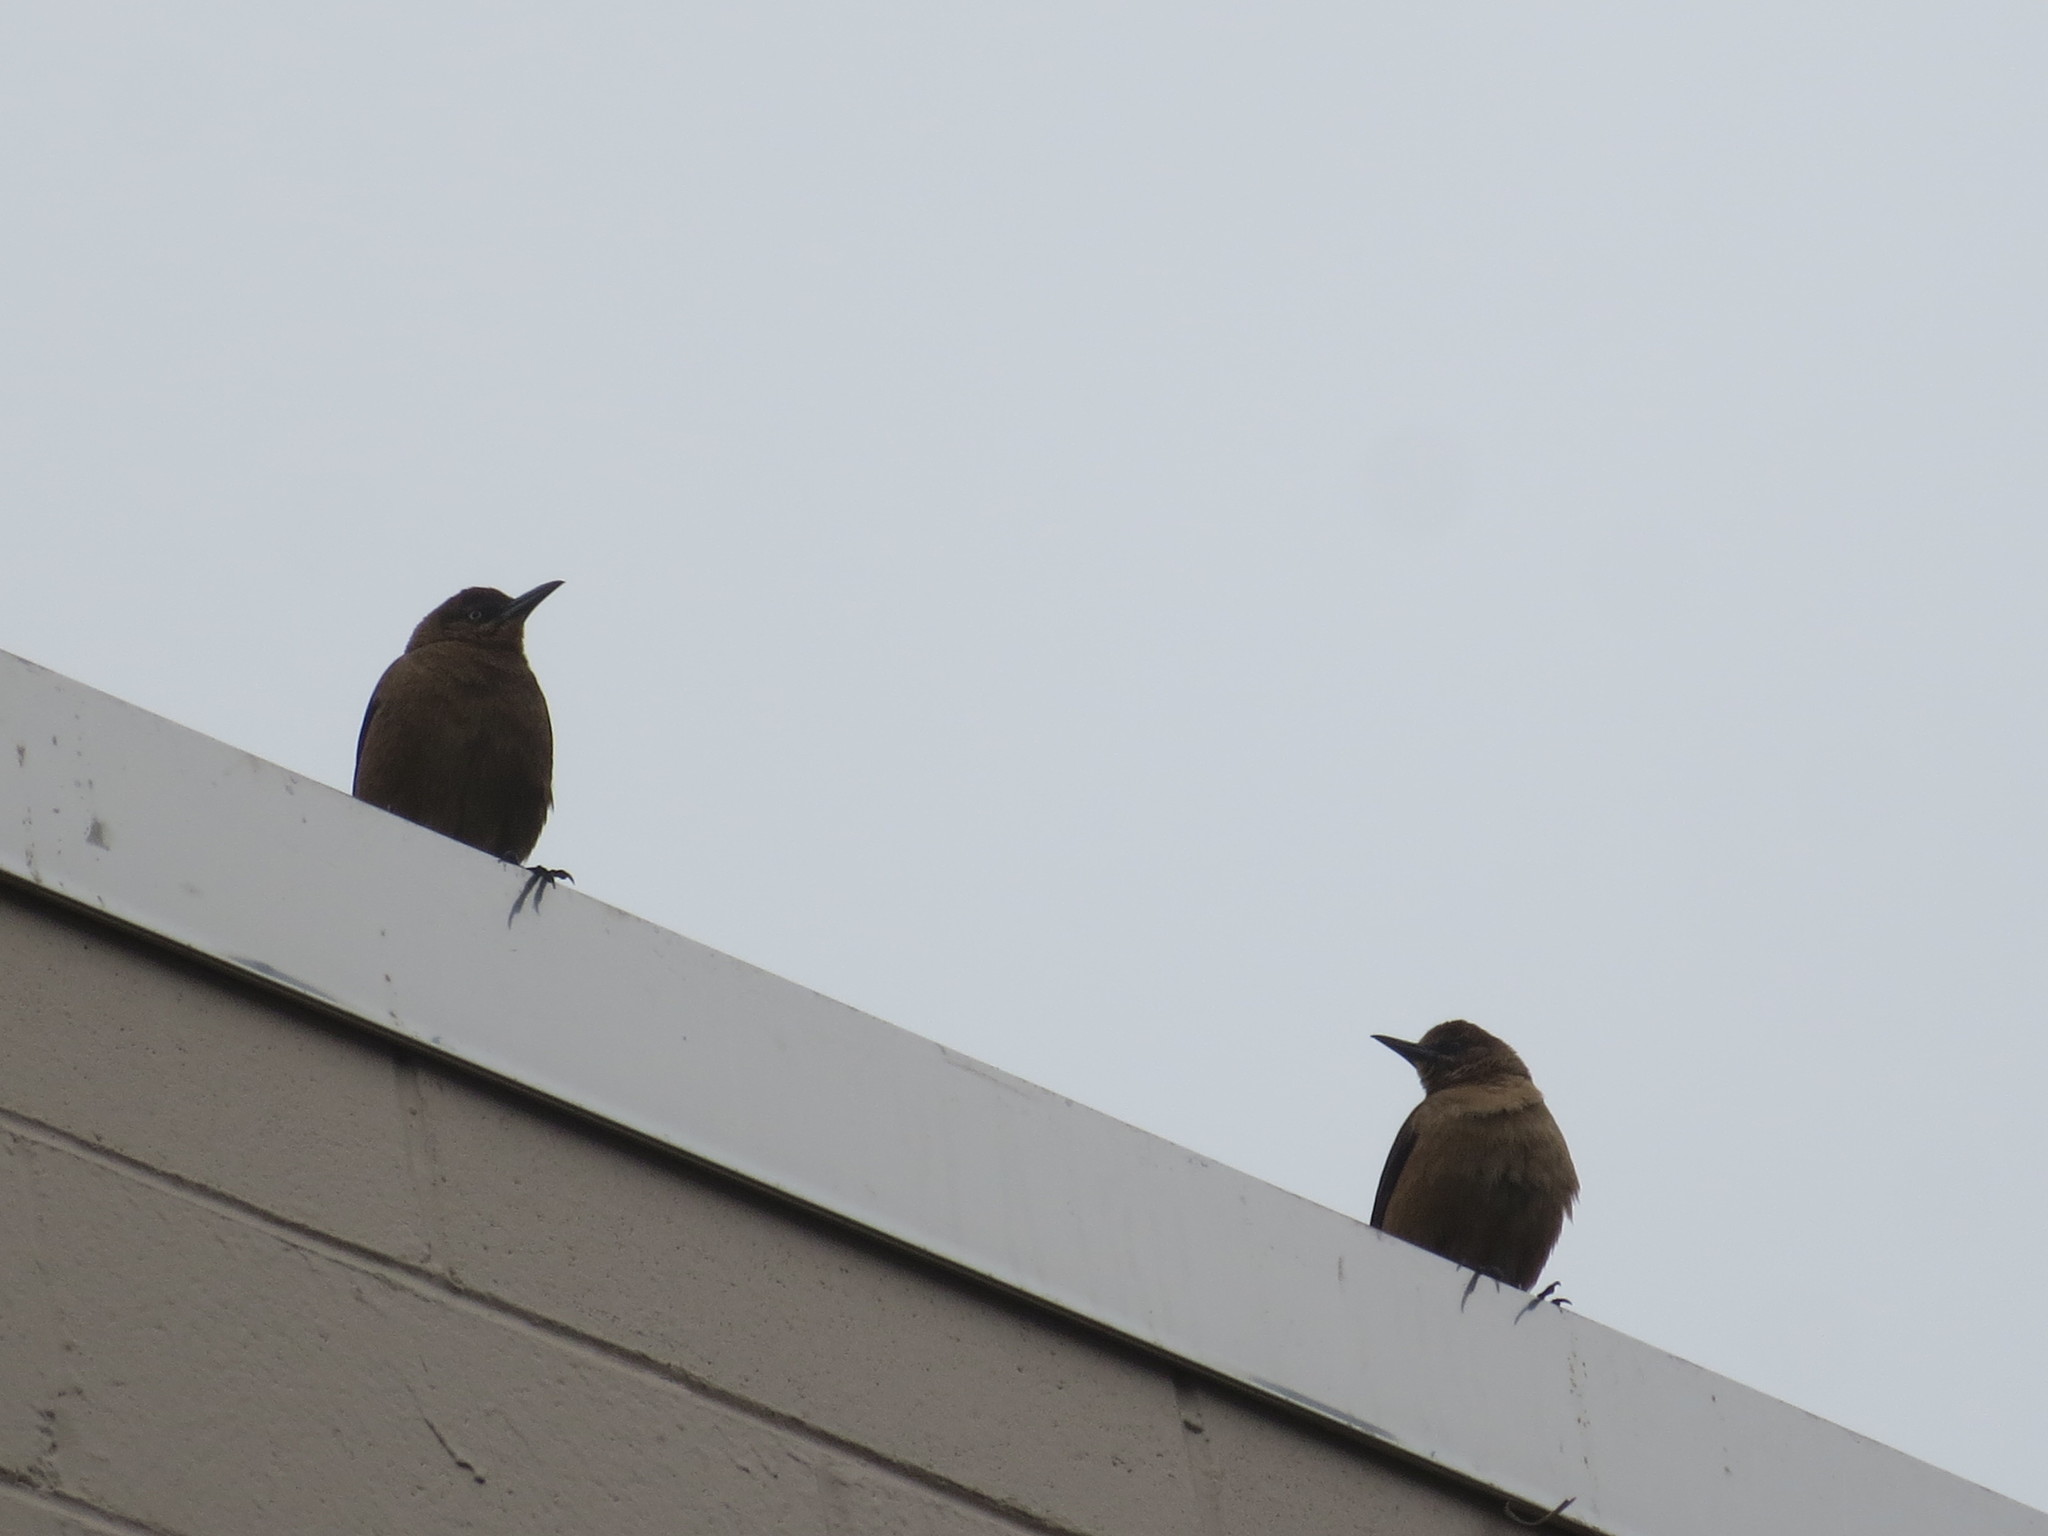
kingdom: Animalia
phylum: Chordata
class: Aves
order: Passeriformes
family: Icteridae
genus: Quiscalus
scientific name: Quiscalus major
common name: Boat-tailed grackle
